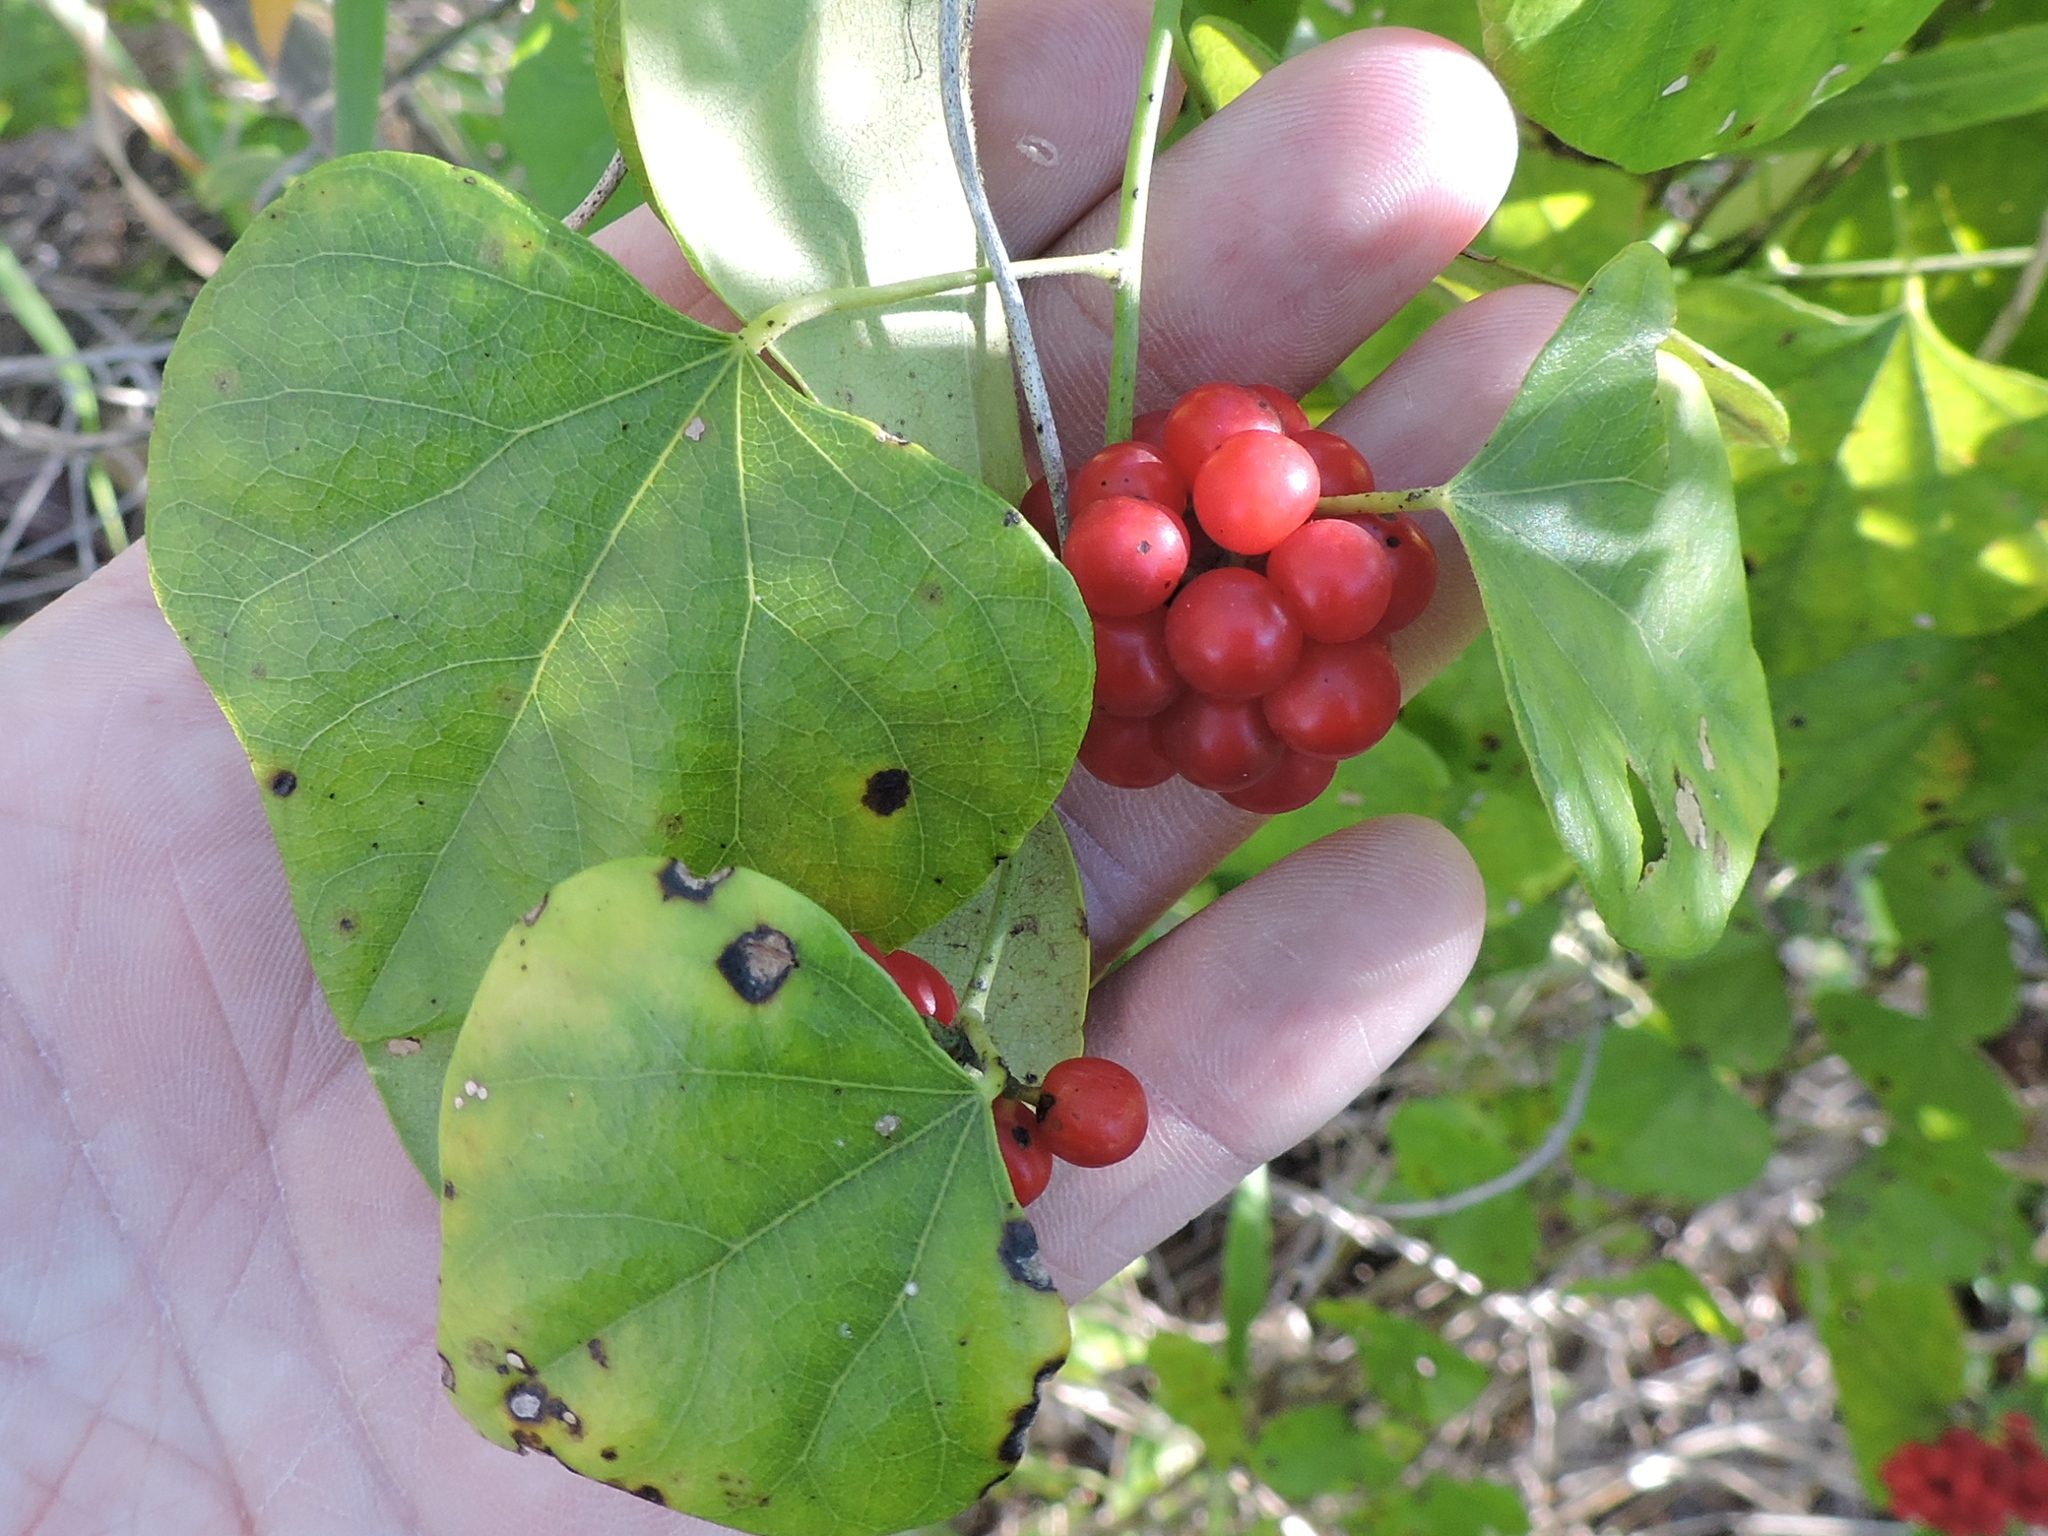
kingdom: Plantae
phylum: Tracheophyta
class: Magnoliopsida
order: Ranunculales
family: Menispermaceae
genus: Cocculus
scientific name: Cocculus carolinus
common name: Carolina moonseed
